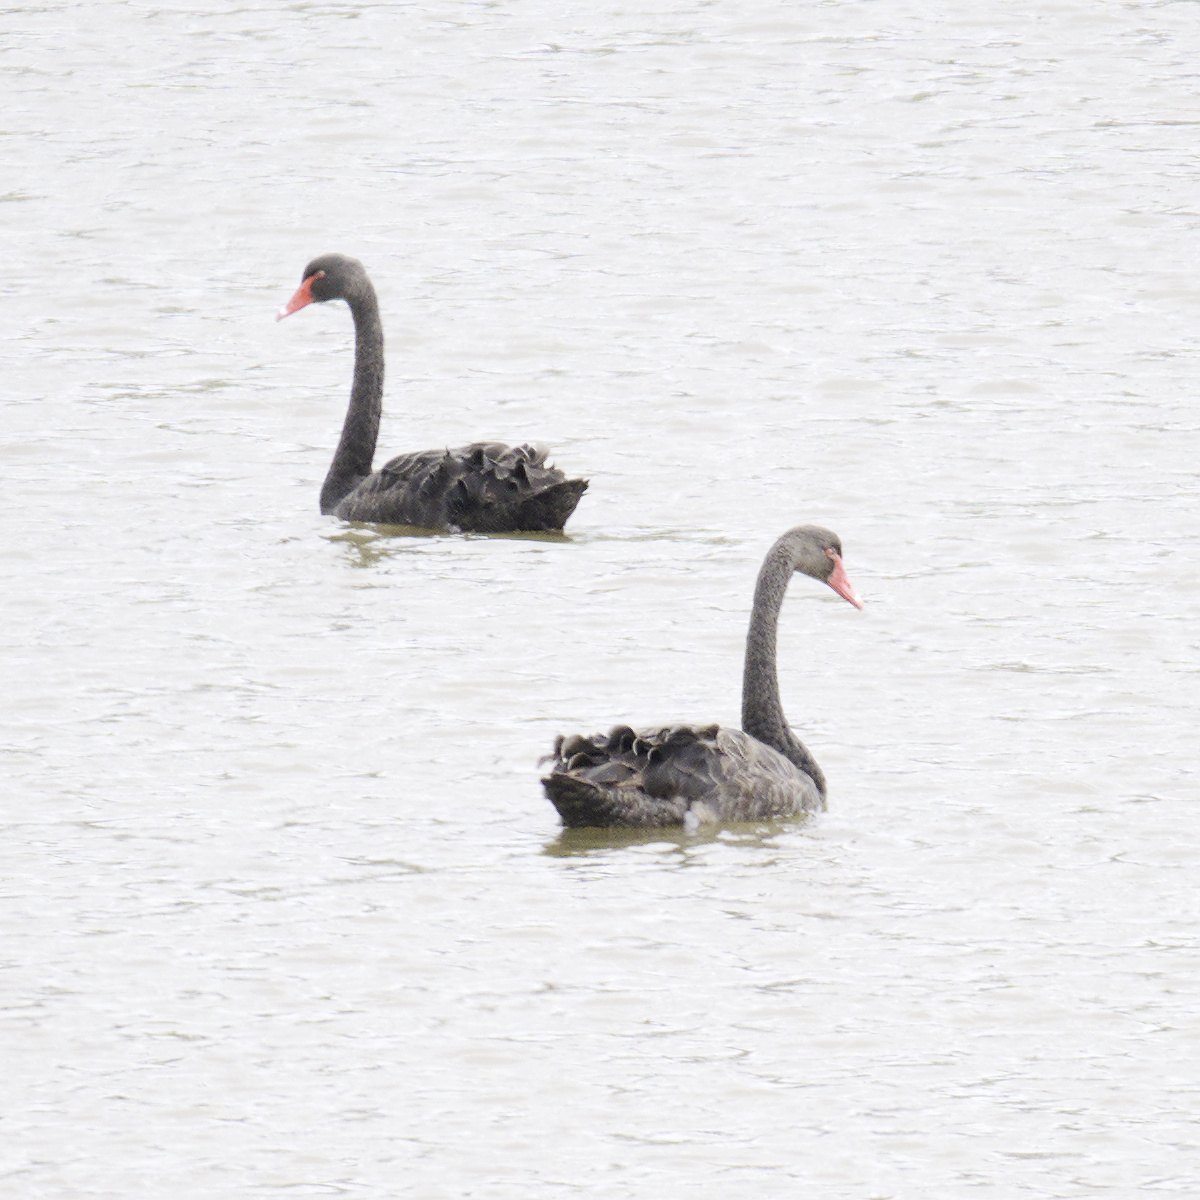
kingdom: Animalia
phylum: Chordata
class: Aves
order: Anseriformes
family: Anatidae
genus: Cygnus
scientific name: Cygnus atratus
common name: Black swan
